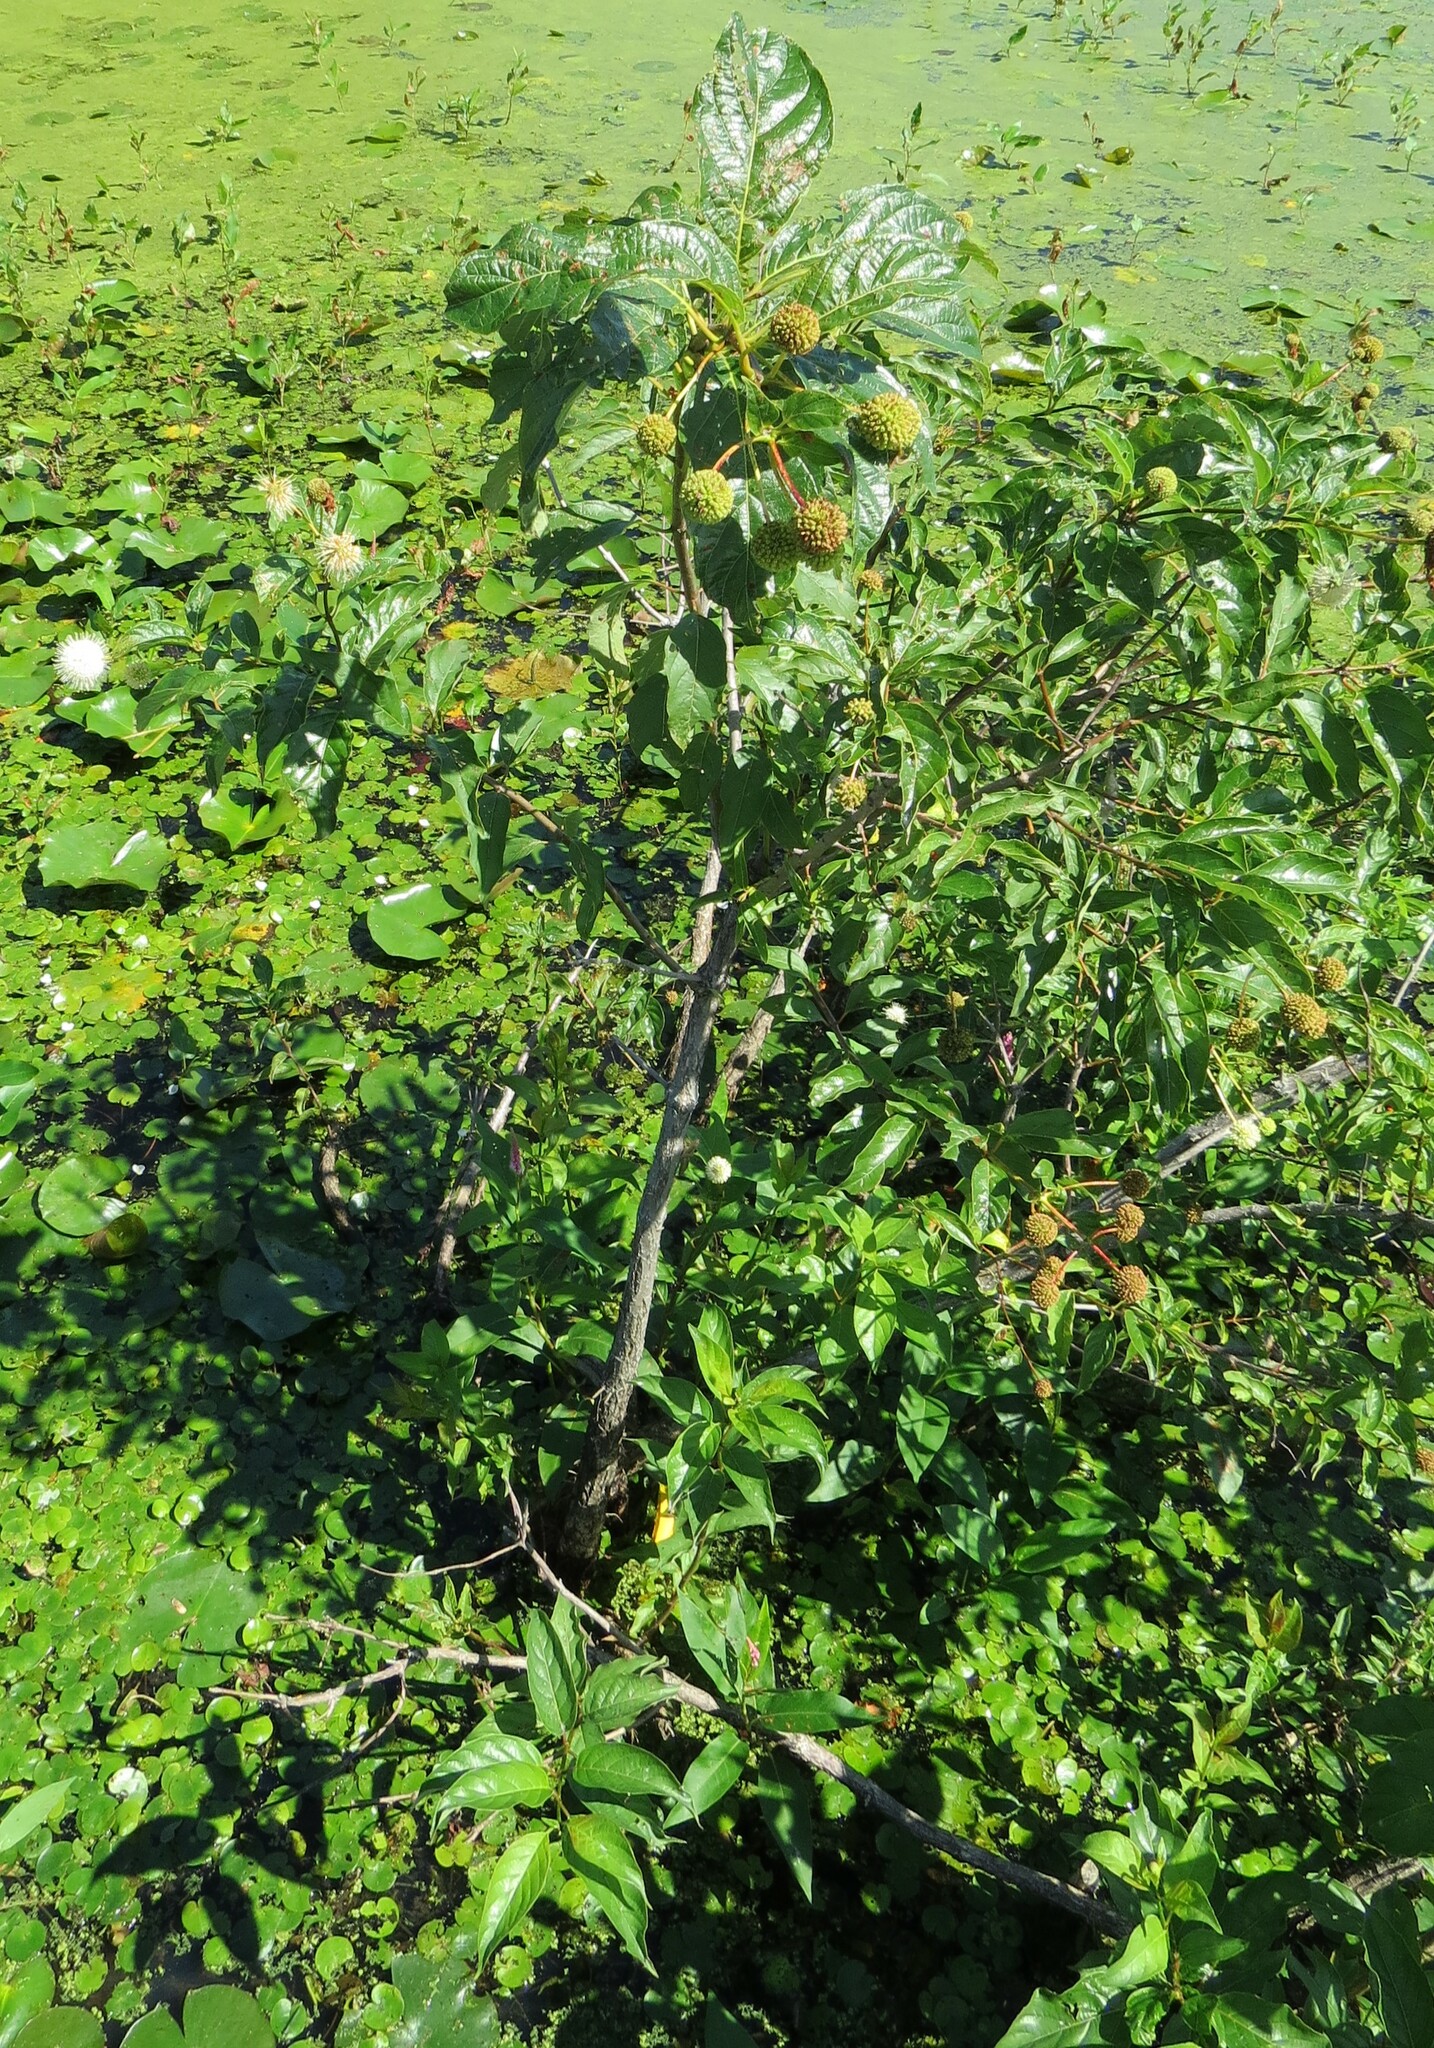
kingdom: Plantae
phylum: Tracheophyta
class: Magnoliopsida
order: Gentianales
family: Rubiaceae
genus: Cephalanthus
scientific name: Cephalanthus occidentalis
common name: Button-willow
